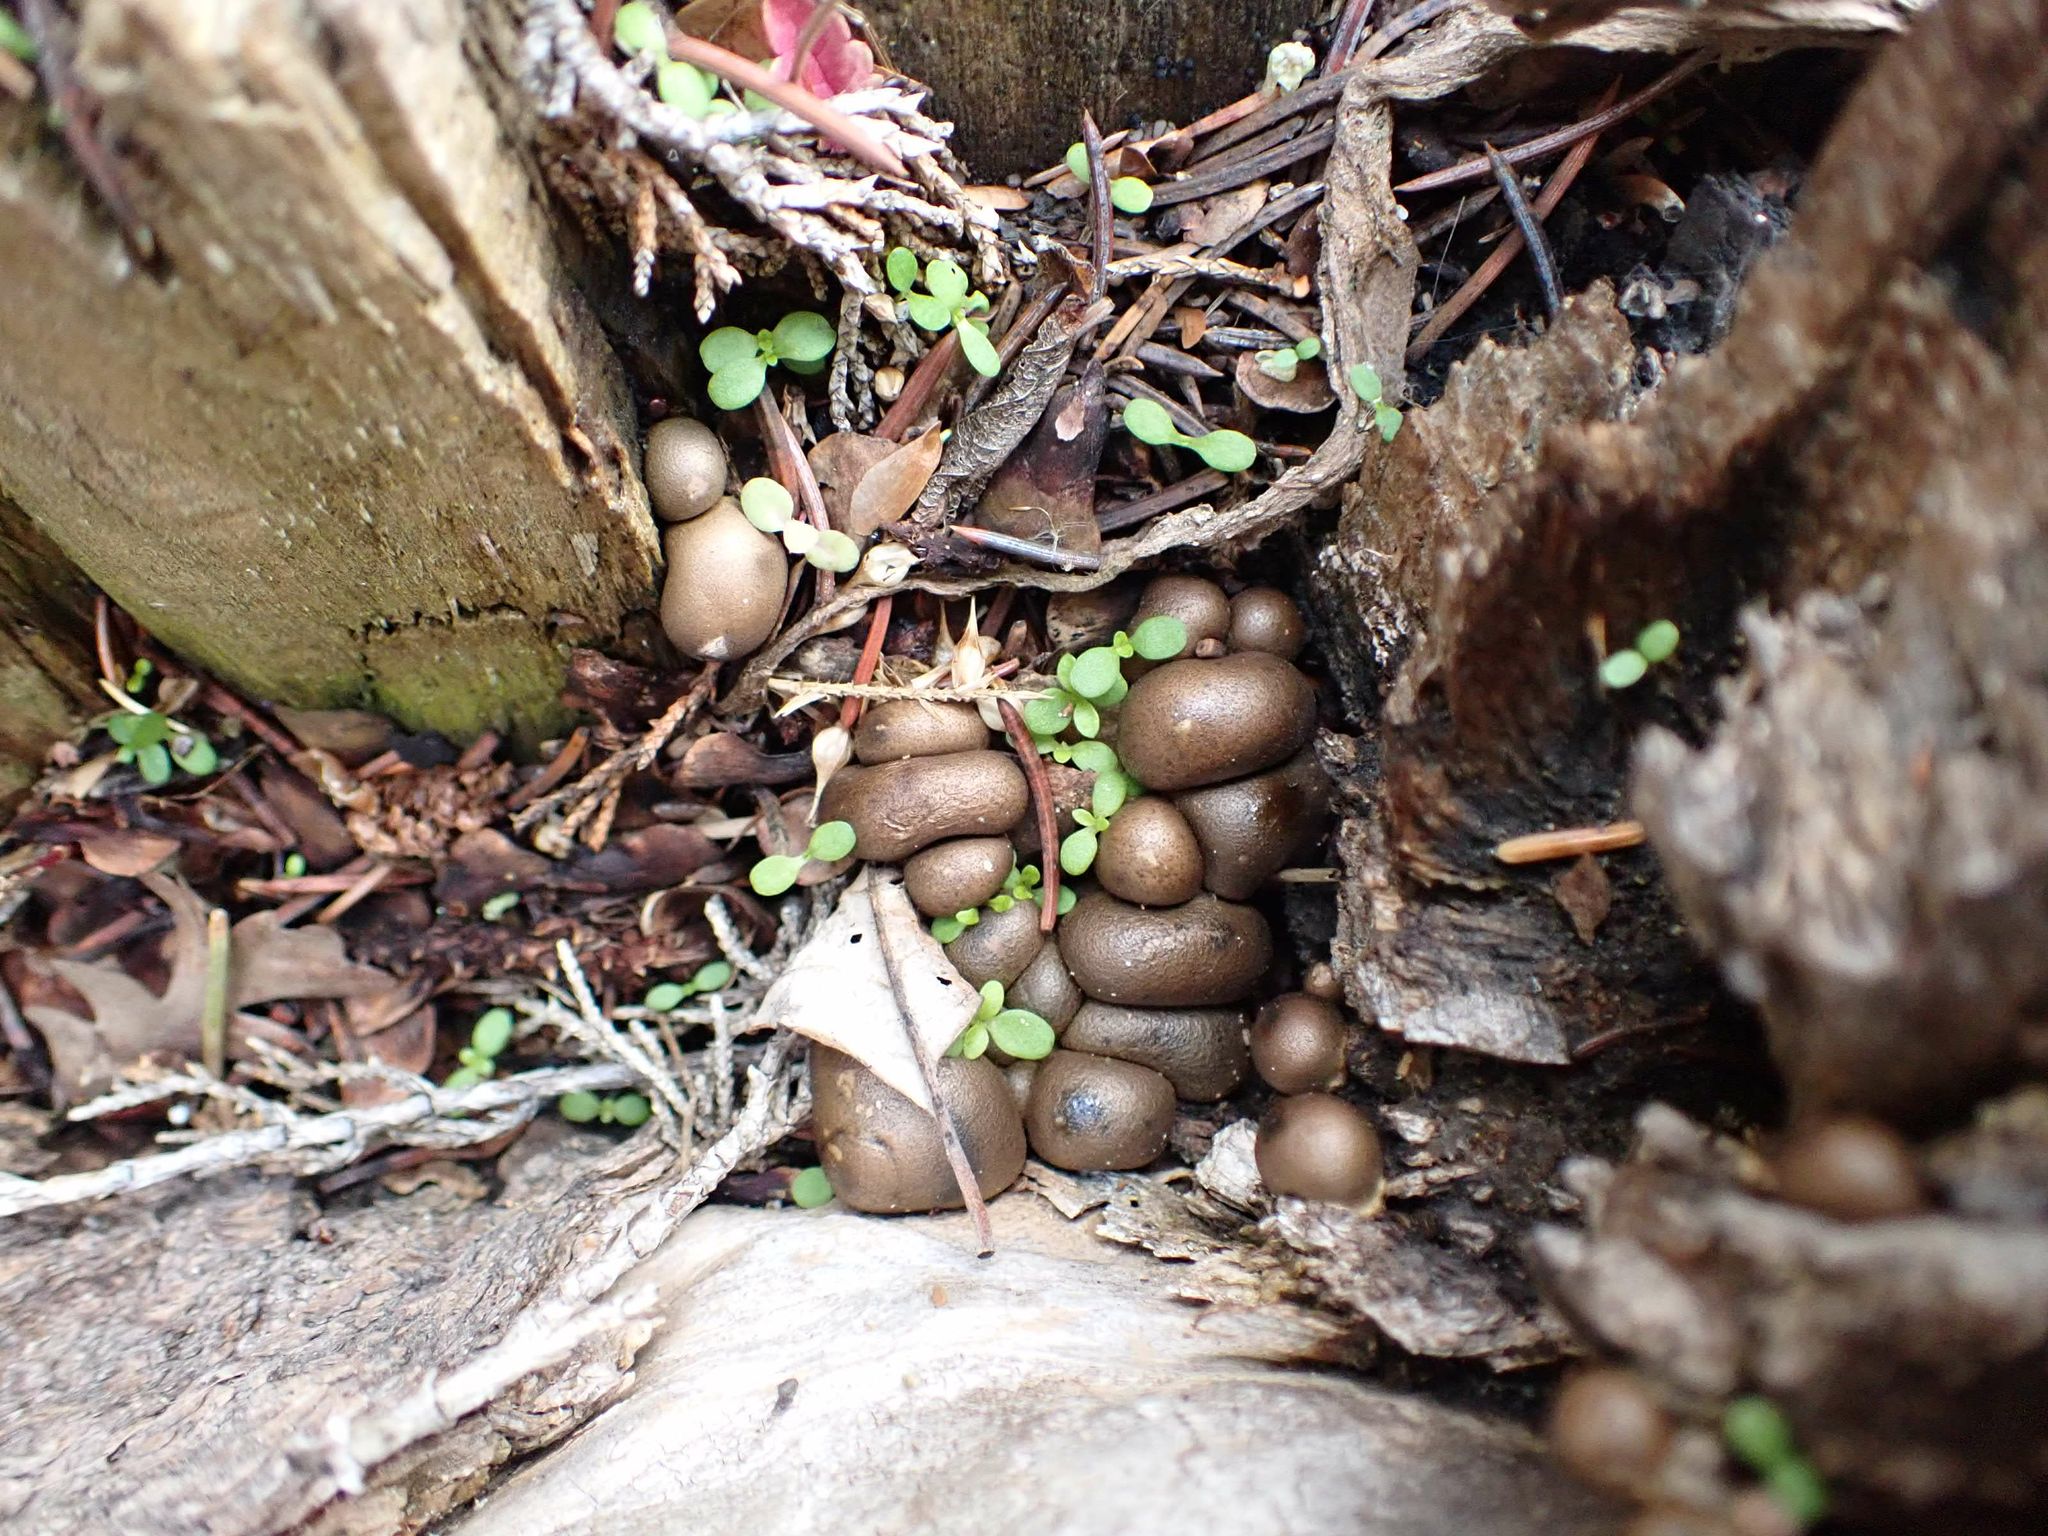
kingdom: Protozoa
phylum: Mycetozoa
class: Myxomycetes
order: Cribrariales
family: Tubiferaceae
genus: Lycogala
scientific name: Lycogala epidendrum
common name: Wolf's milk
